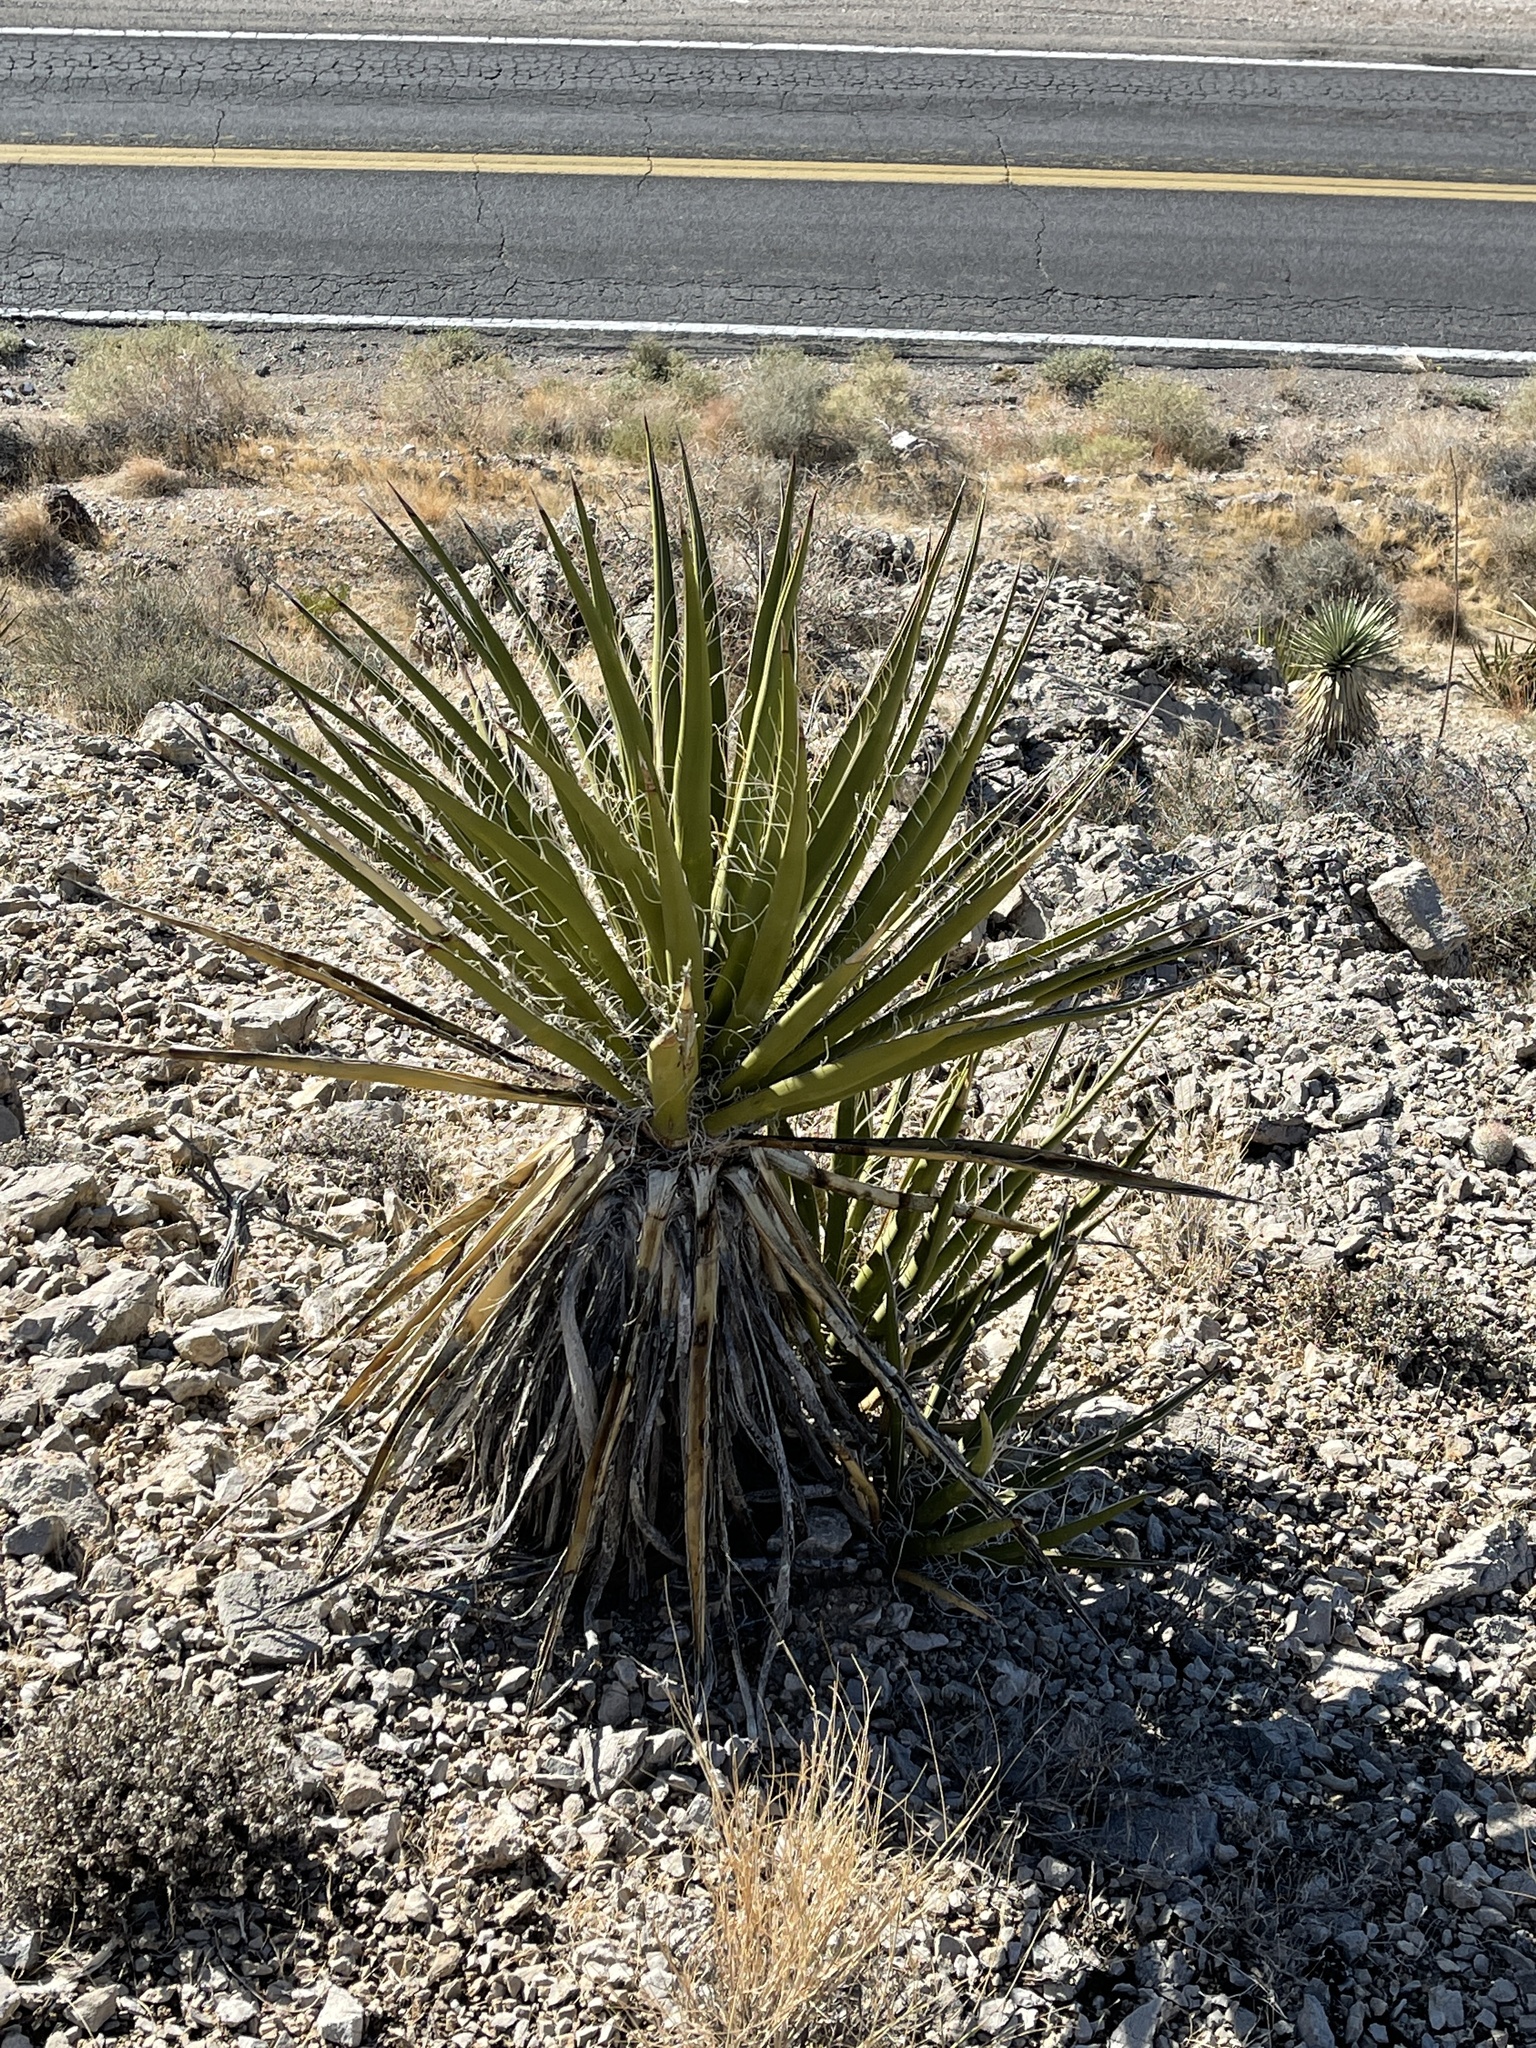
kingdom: Plantae
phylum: Tracheophyta
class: Liliopsida
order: Asparagales
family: Asparagaceae
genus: Yucca
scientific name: Yucca schidigera
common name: Mojave yucca
